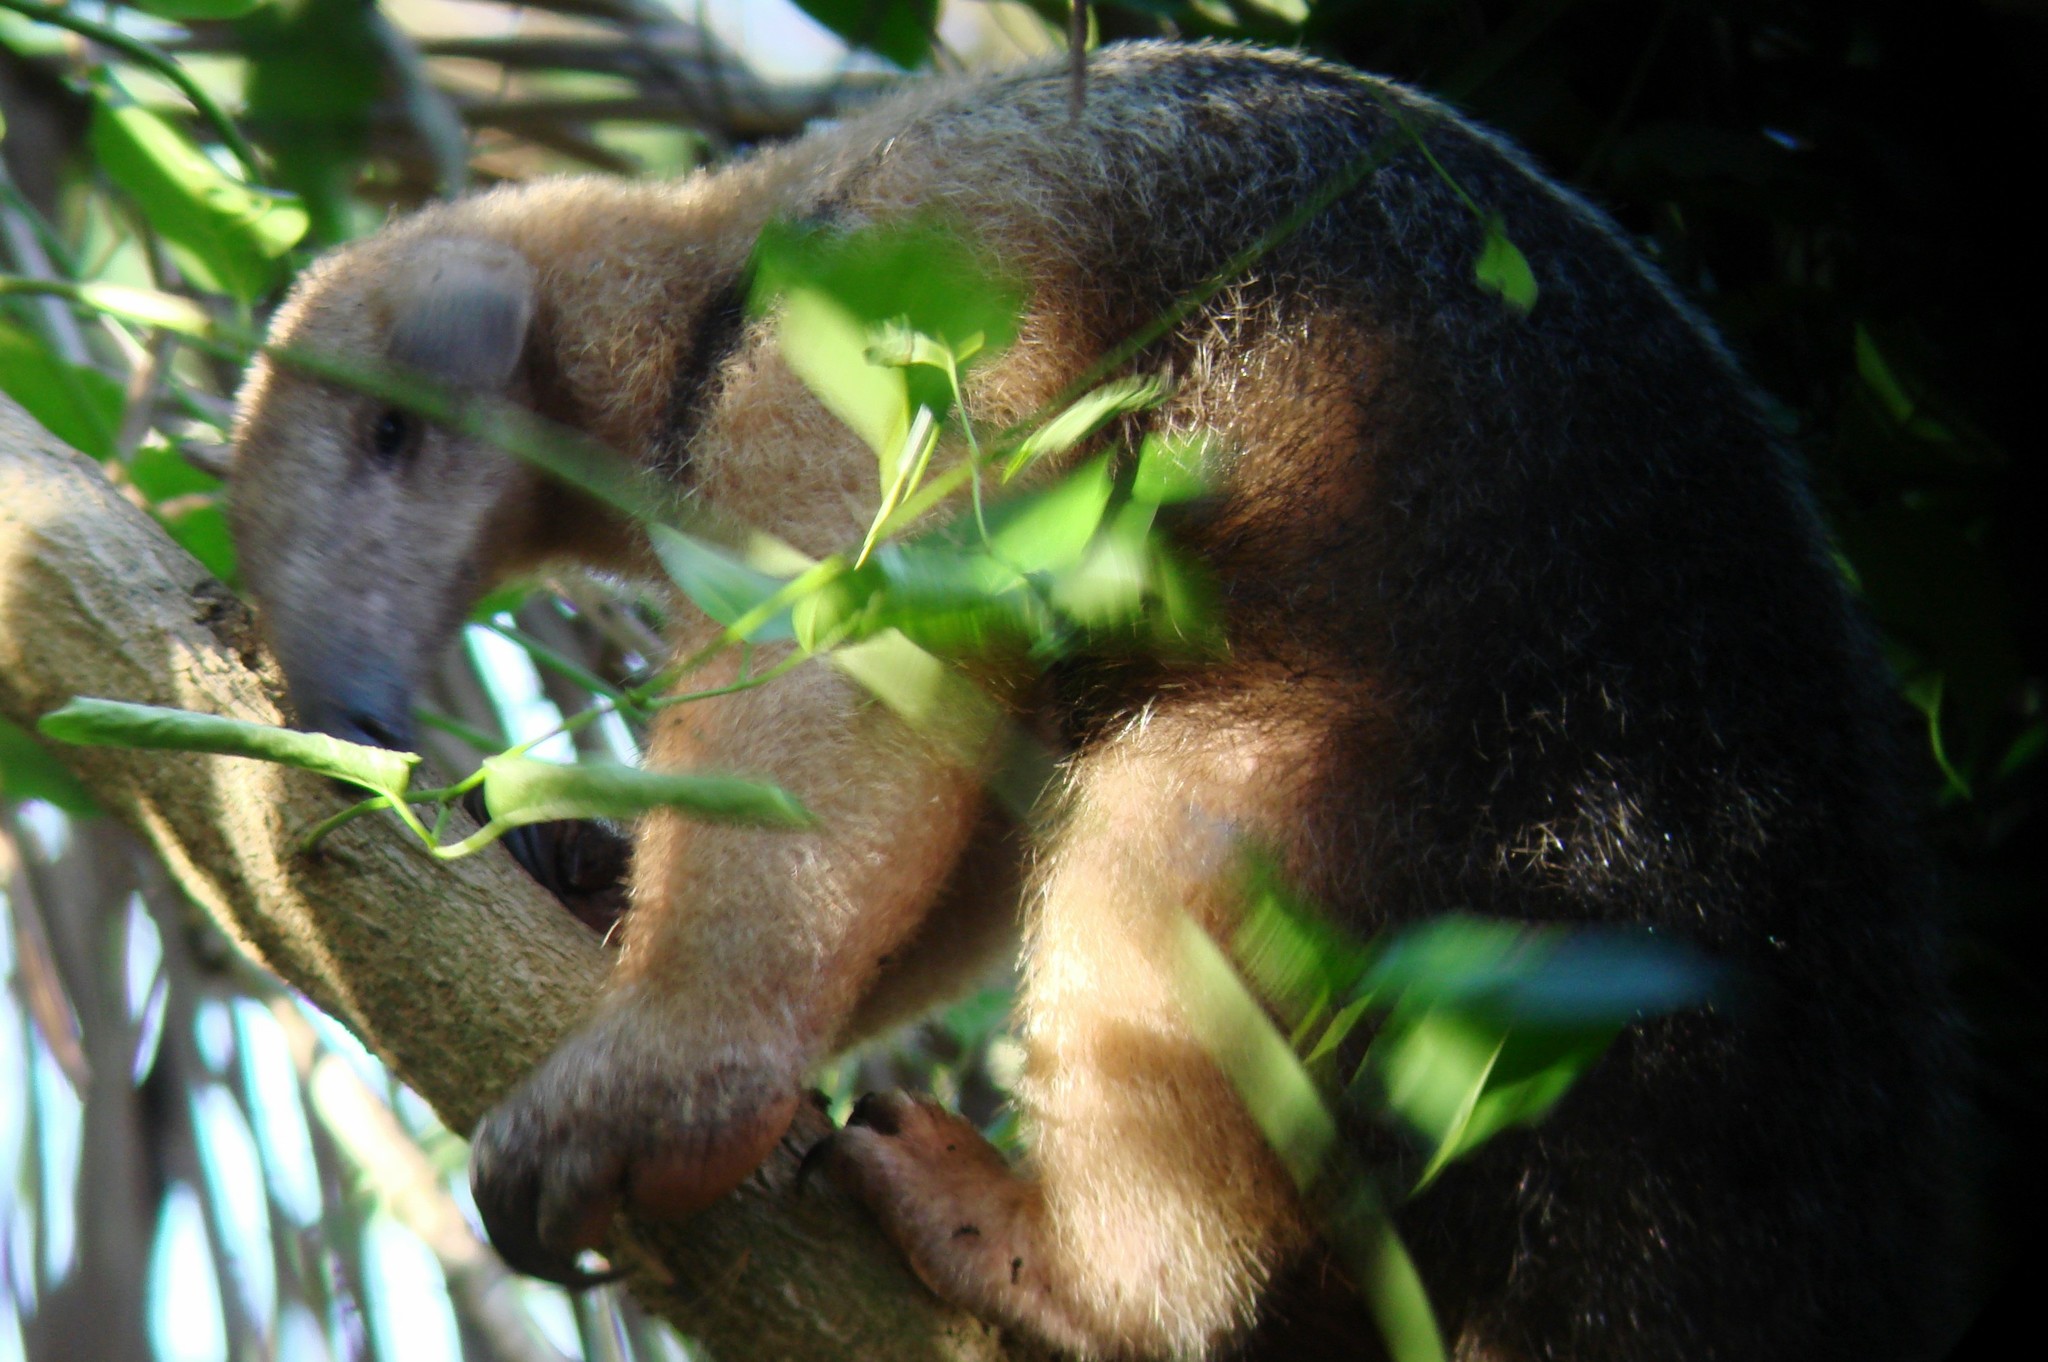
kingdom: Animalia
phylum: Chordata
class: Mammalia
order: Pilosa
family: Myrmecophagidae
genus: Tamandua
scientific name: Tamandua tetradactyla
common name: Southern tamandua
